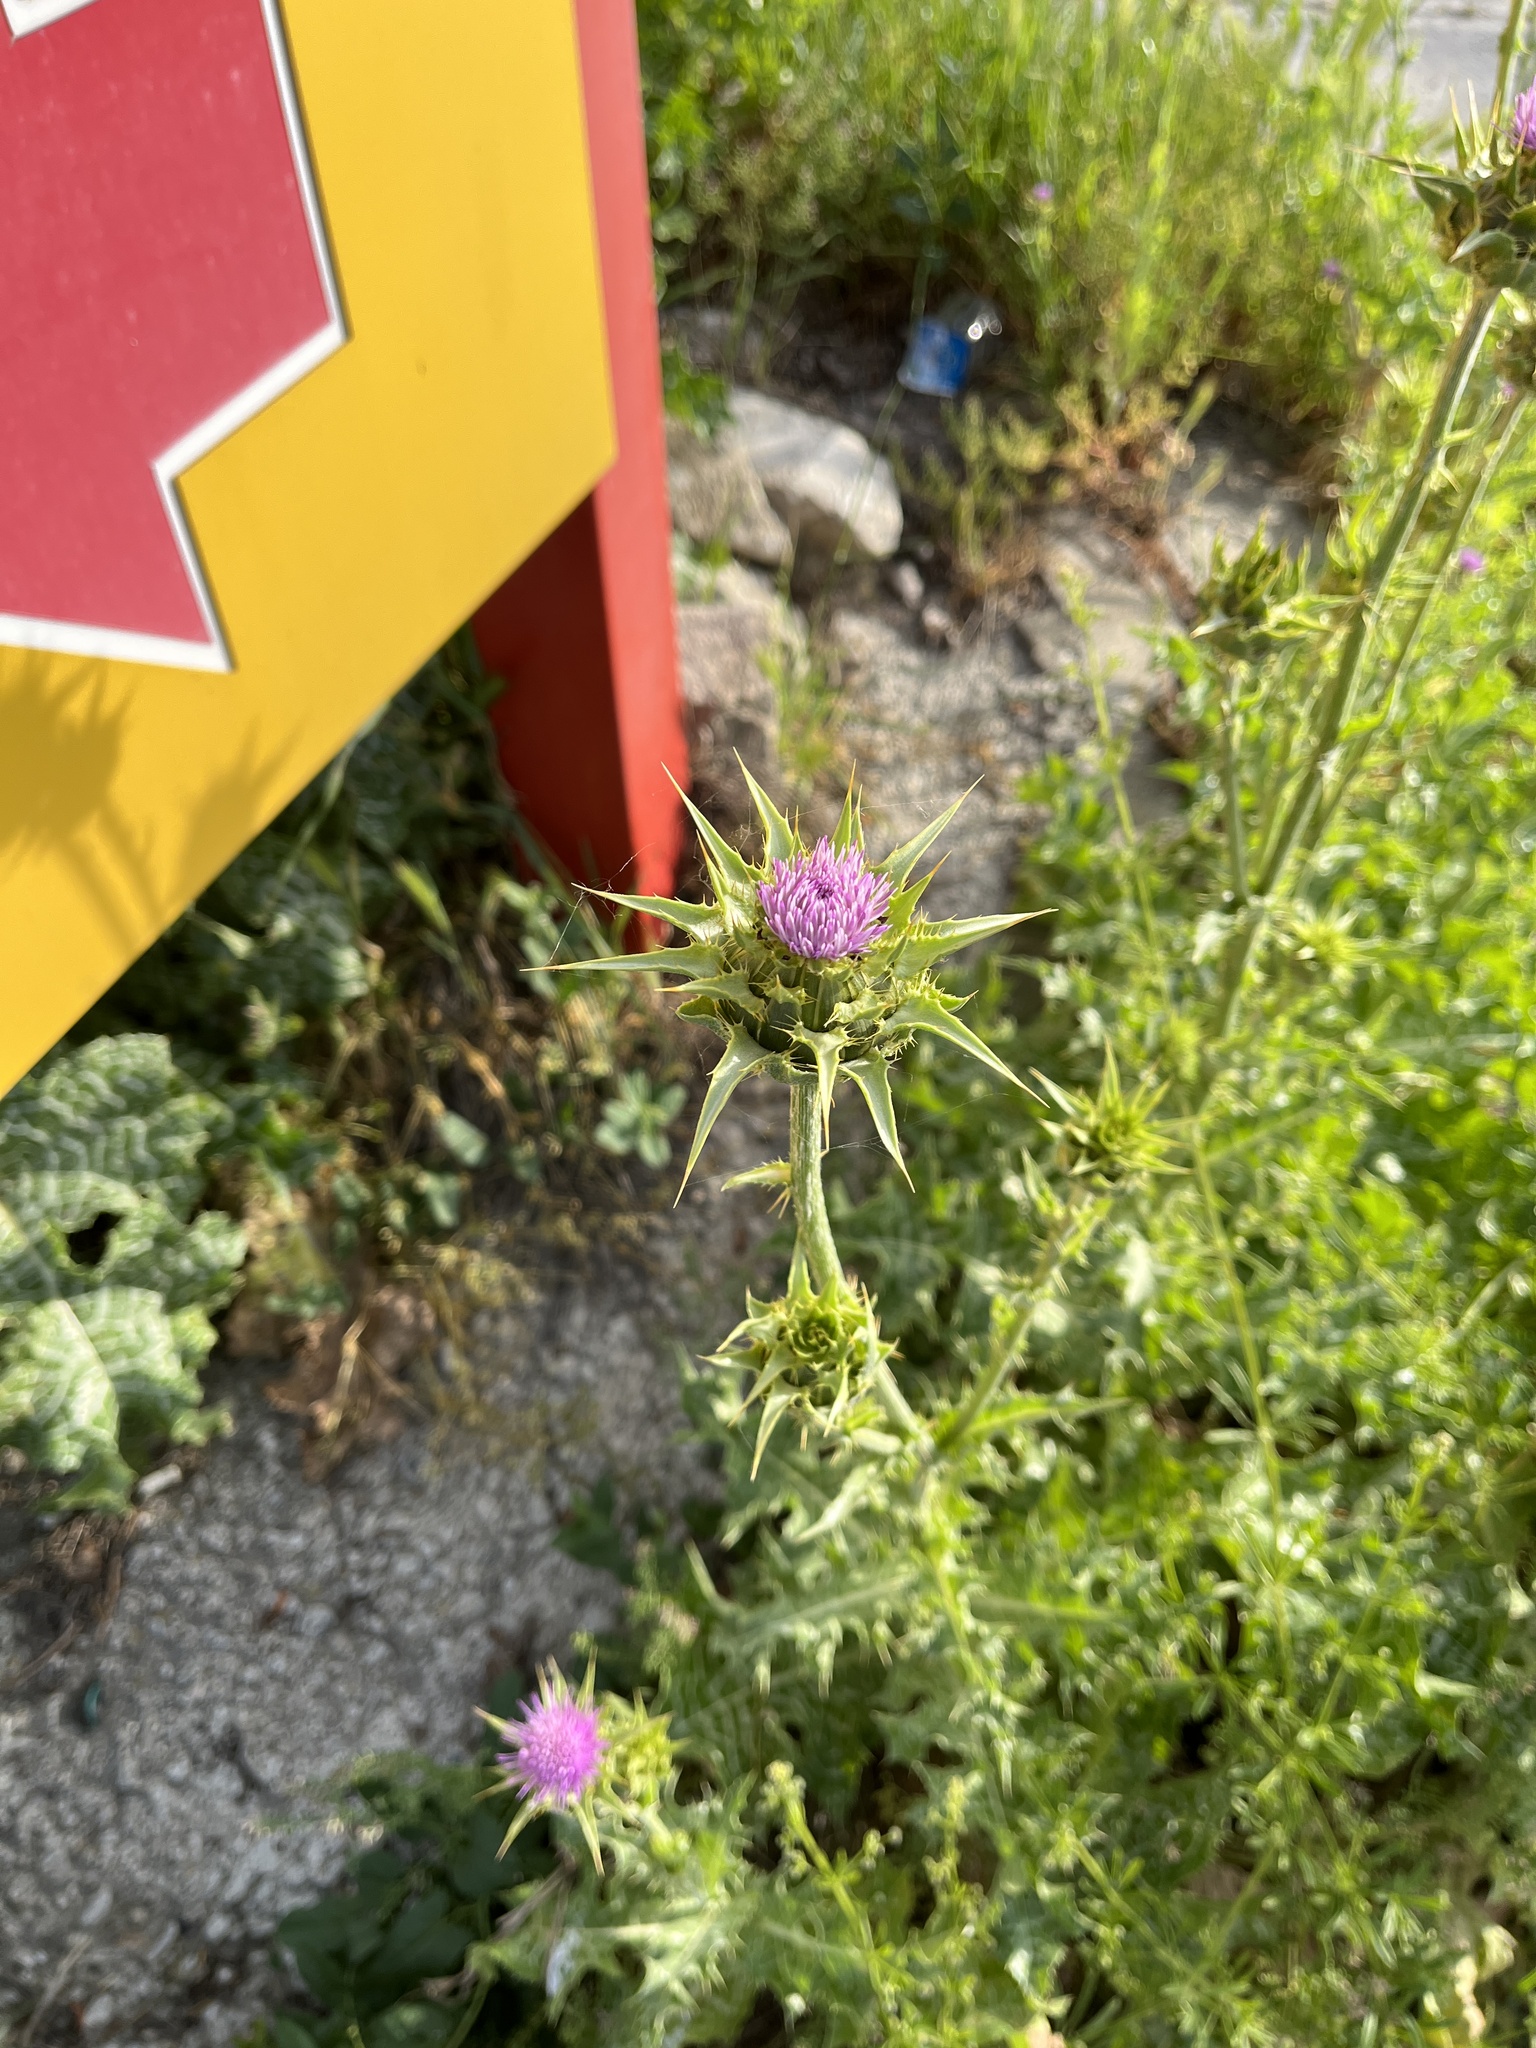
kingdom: Plantae
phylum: Tracheophyta
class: Magnoliopsida
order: Asterales
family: Asteraceae
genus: Silybum
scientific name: Silybum marianum
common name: Milk thistle
